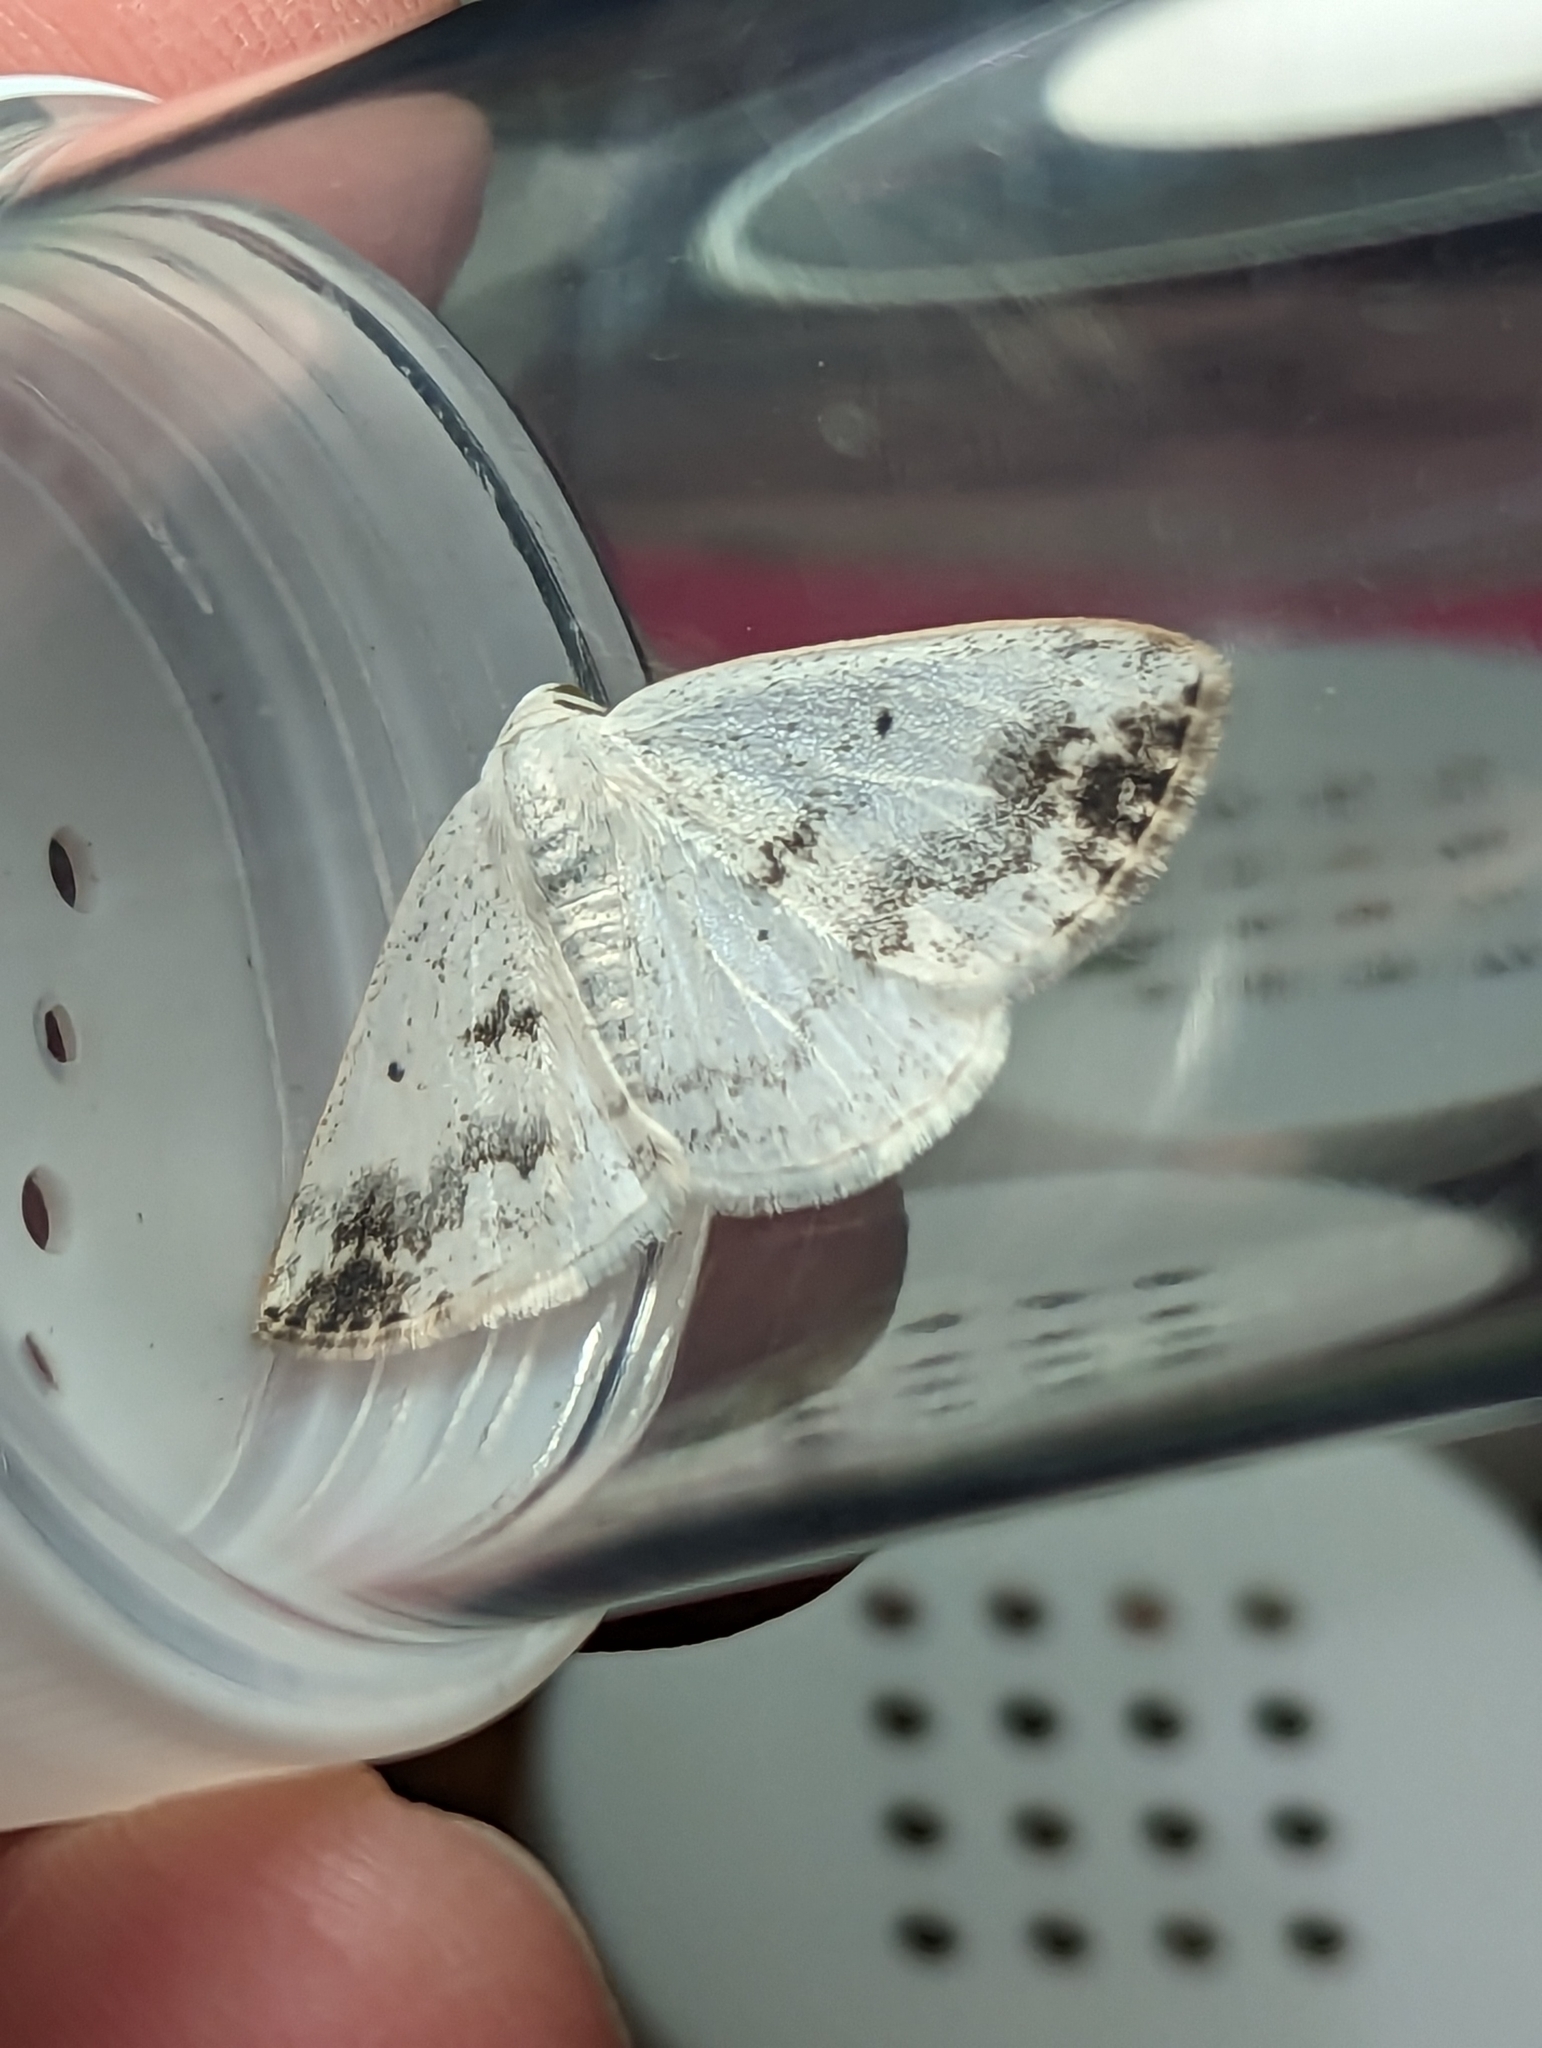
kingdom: Animalia
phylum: Arthropoda
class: Insecta
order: Lepidoptera
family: Geometridae
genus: Lomographa
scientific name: Lomographa temerata
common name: Clouded silver
